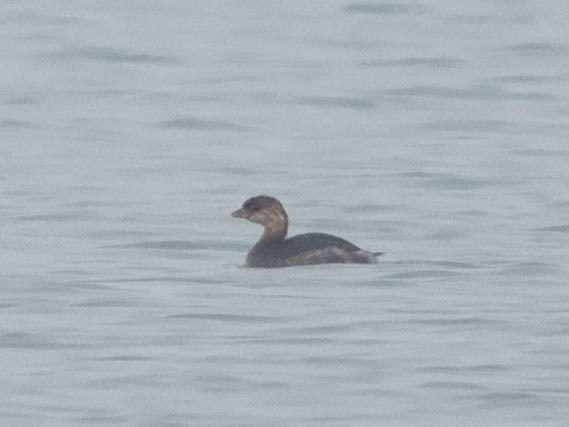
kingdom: Animalia
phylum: Chordata
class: Aves
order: Podicipediformes
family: Podicipedidae
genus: Podilymbus
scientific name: Podilymbus podiceps
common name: Pied-billed grebe
